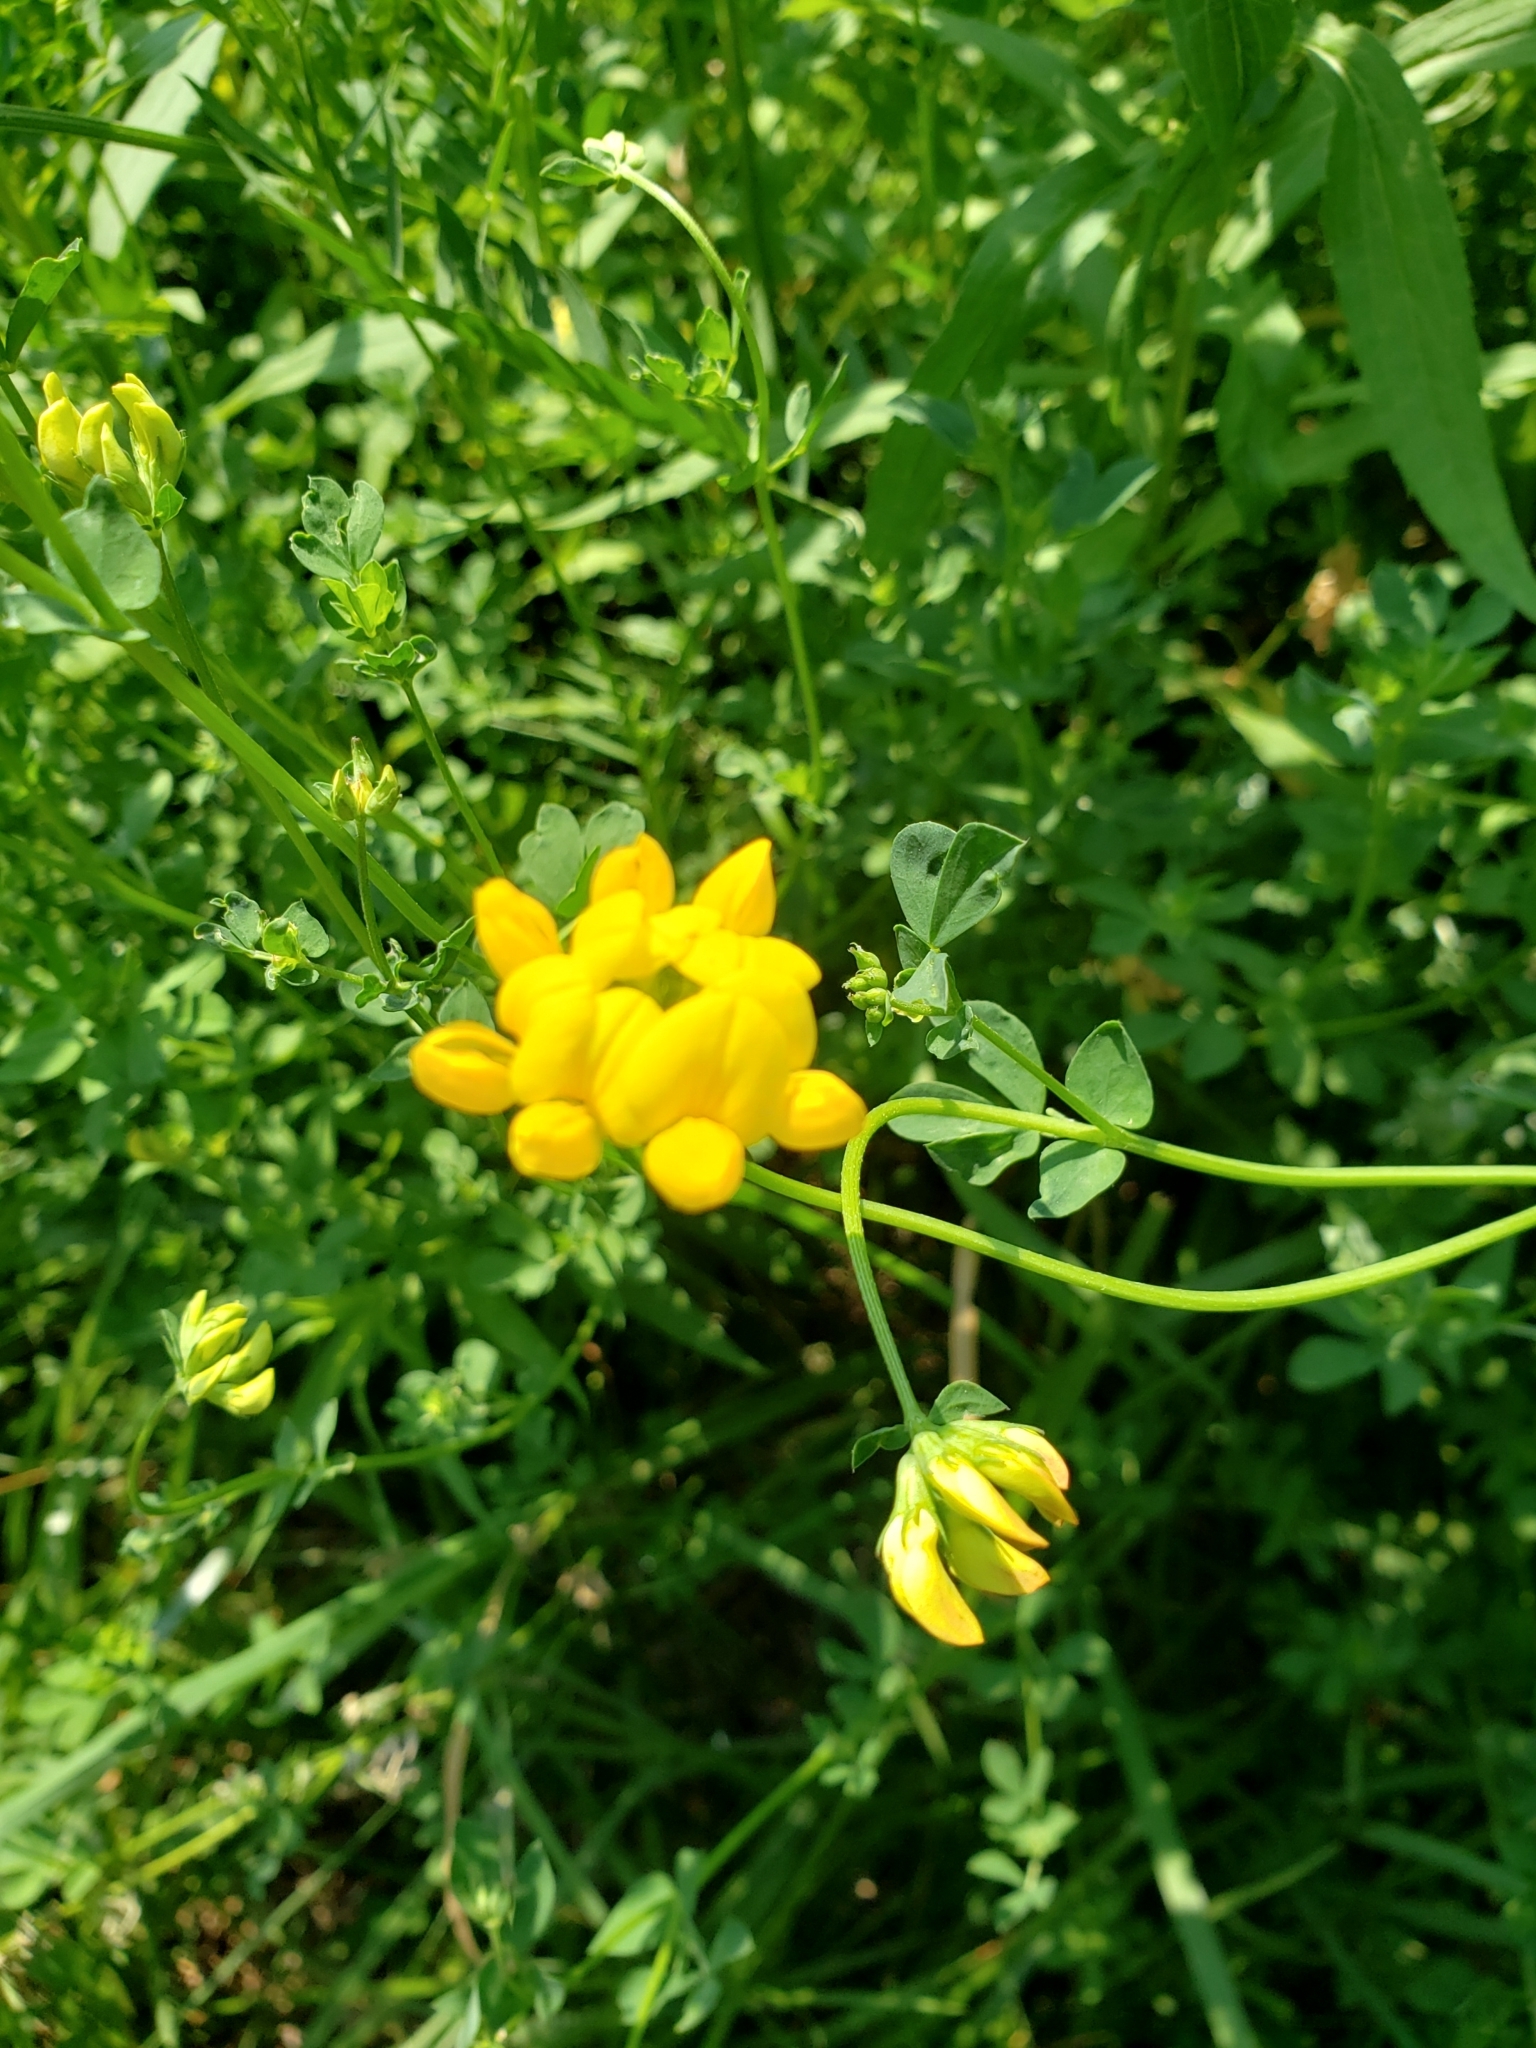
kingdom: Plantae
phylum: Tracheophyta
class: Magnoliopsida
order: Fabales
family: Fabaceae
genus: Lotus
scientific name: Lotus corniculatus
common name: Common bird's-foot-trefoil
